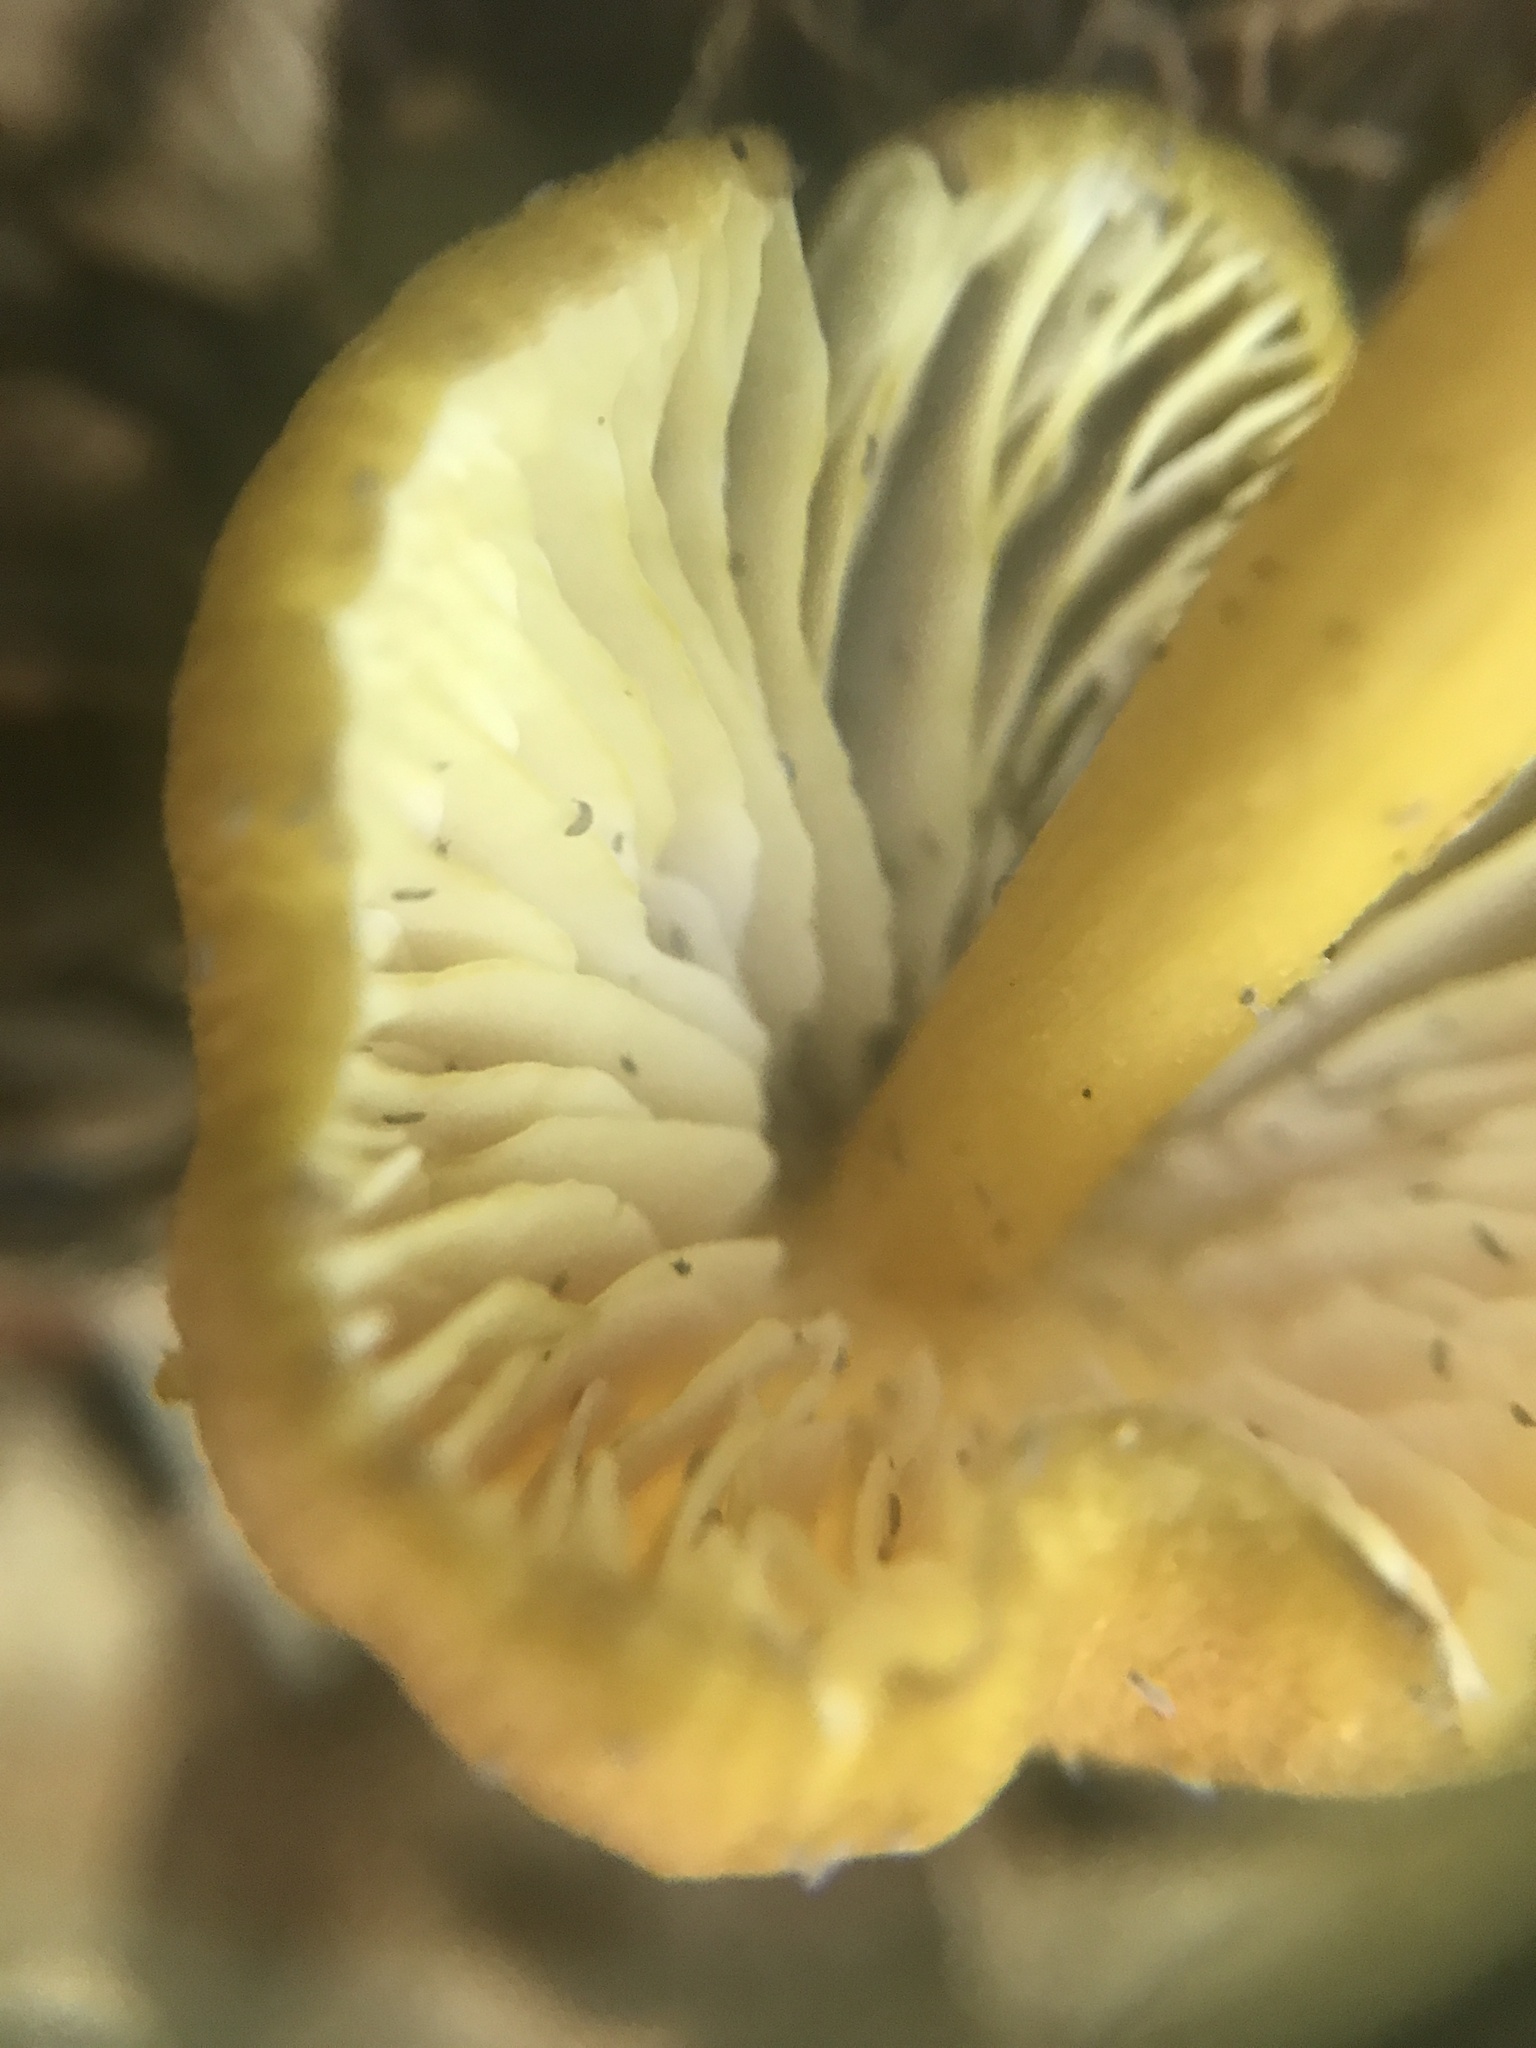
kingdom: Fungi
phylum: Basidiomycota
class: Agaricomycetes
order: Agaricales
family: Entolomataceae
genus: Entoloma
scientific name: Entoloma luteum
